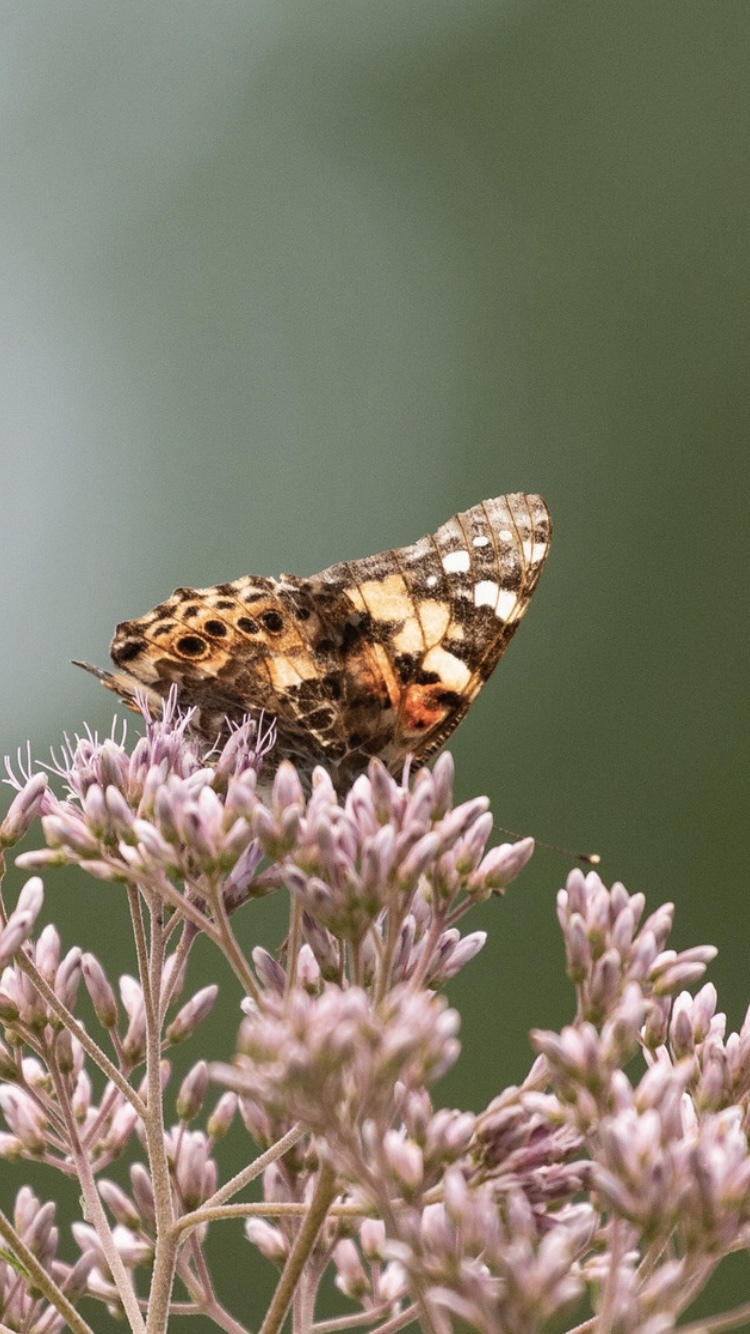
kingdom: Animalia
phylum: Arthropoda
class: Insecta
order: Lepidoptera
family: Nymphalidae
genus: Vanessa
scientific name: Vanessa cardui
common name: Painted lady
